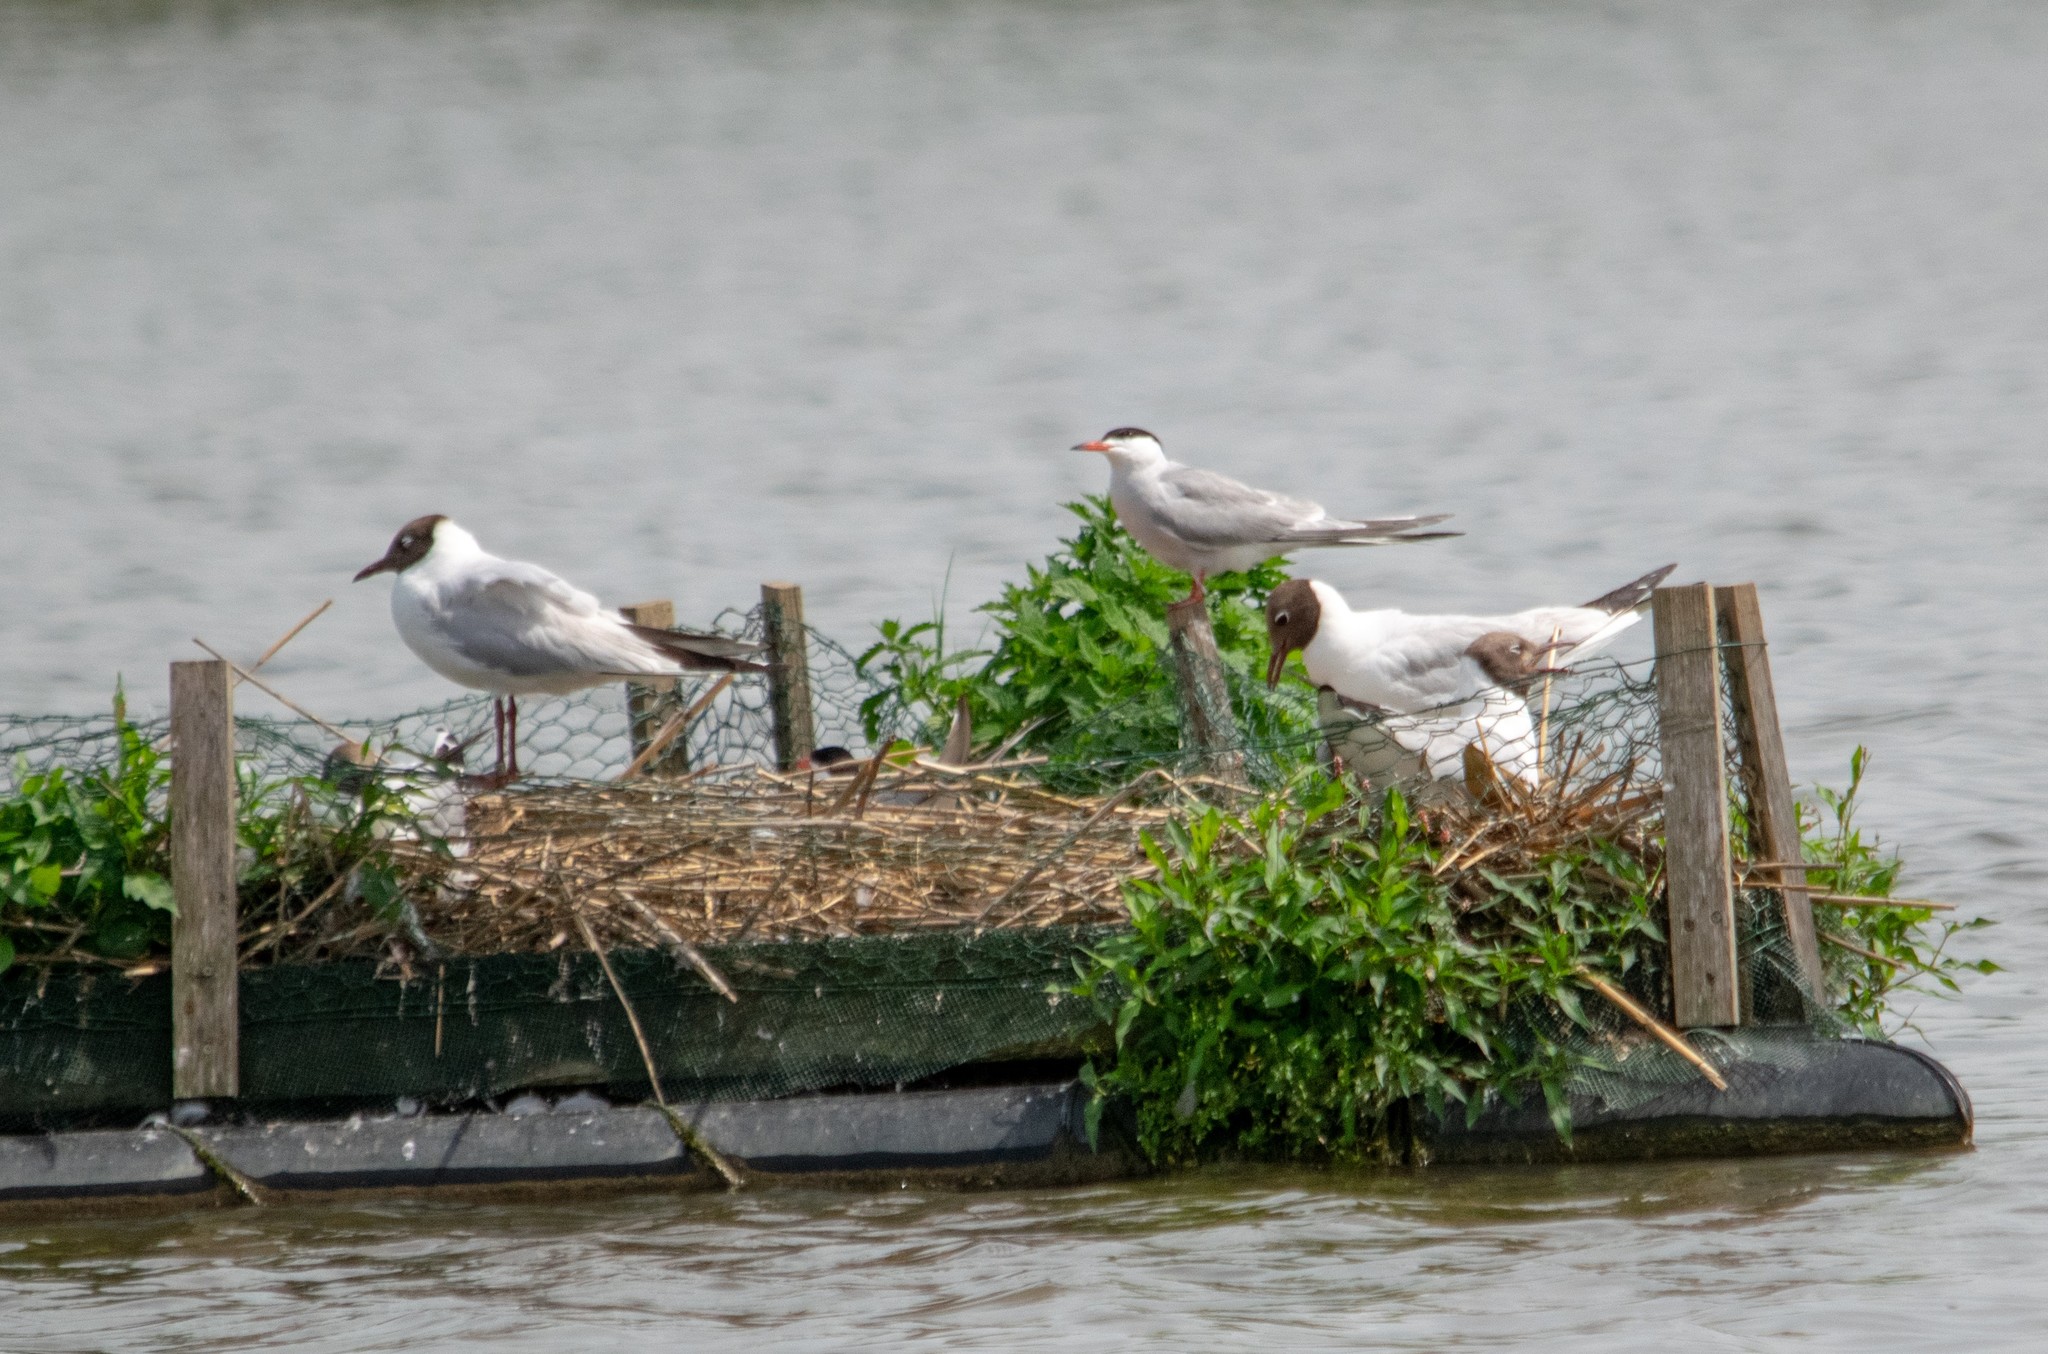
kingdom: Animalia
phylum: Chordata
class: Aves
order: Charadriiformes
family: Laridae
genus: Sterna
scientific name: Sterna hirundo
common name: Common tern
